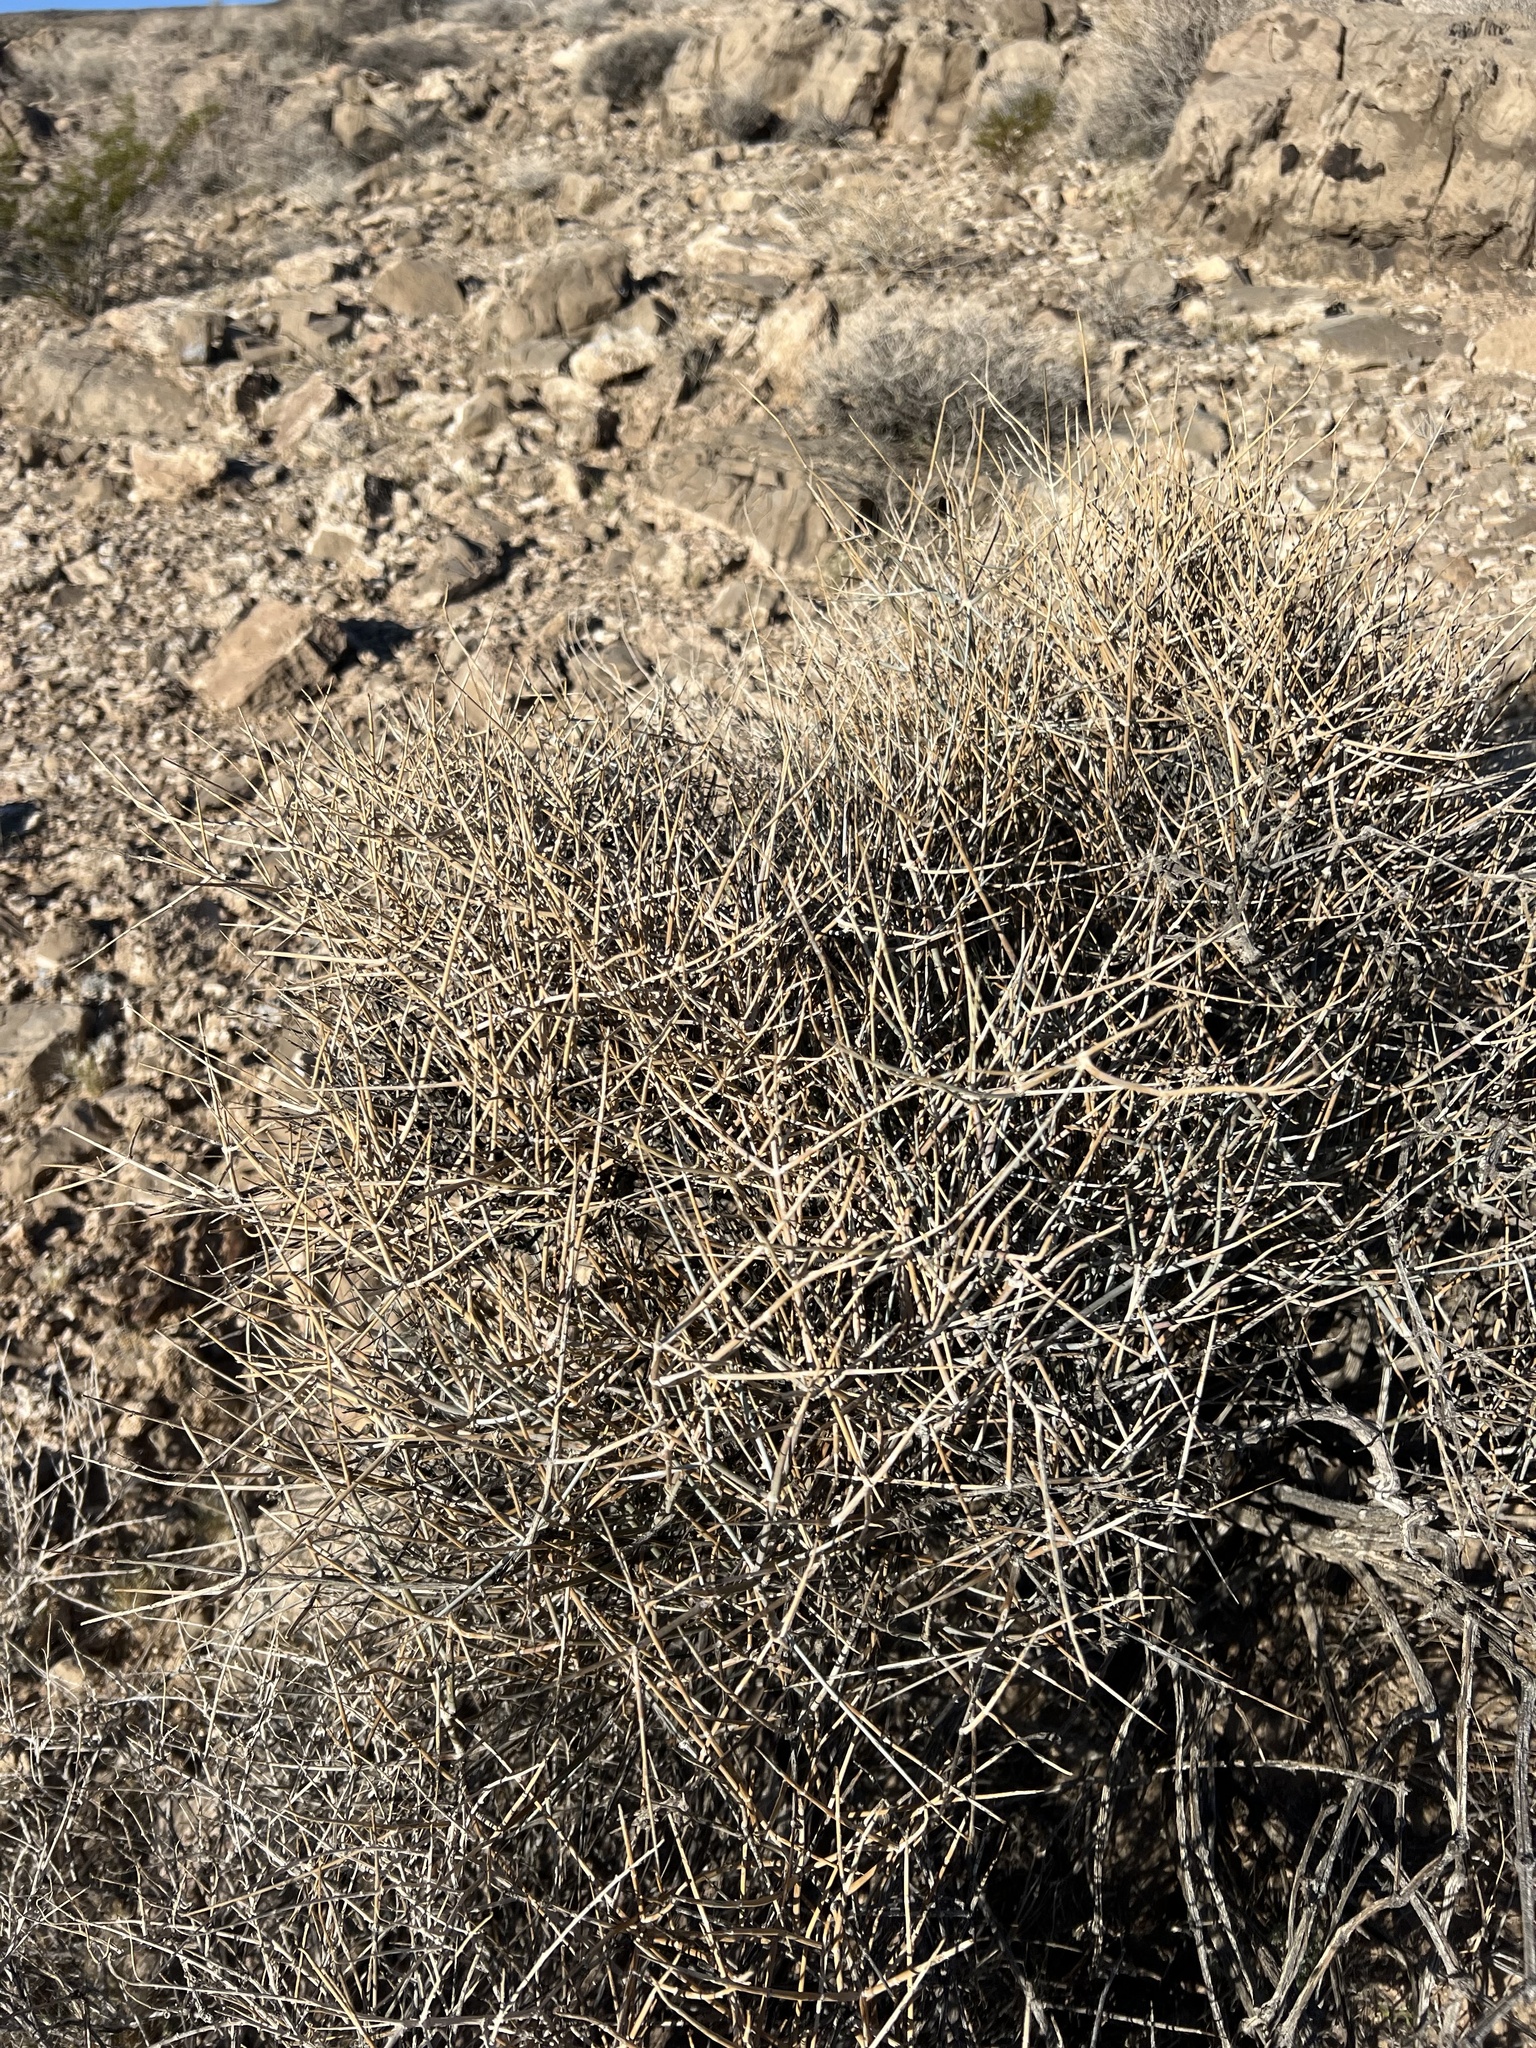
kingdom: Plantae
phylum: Tracheophyta
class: Gnetopsida
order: Ephedrales
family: Ephedraceae
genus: Ephedra
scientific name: Ephedra nevadensis
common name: Gray ephedra
